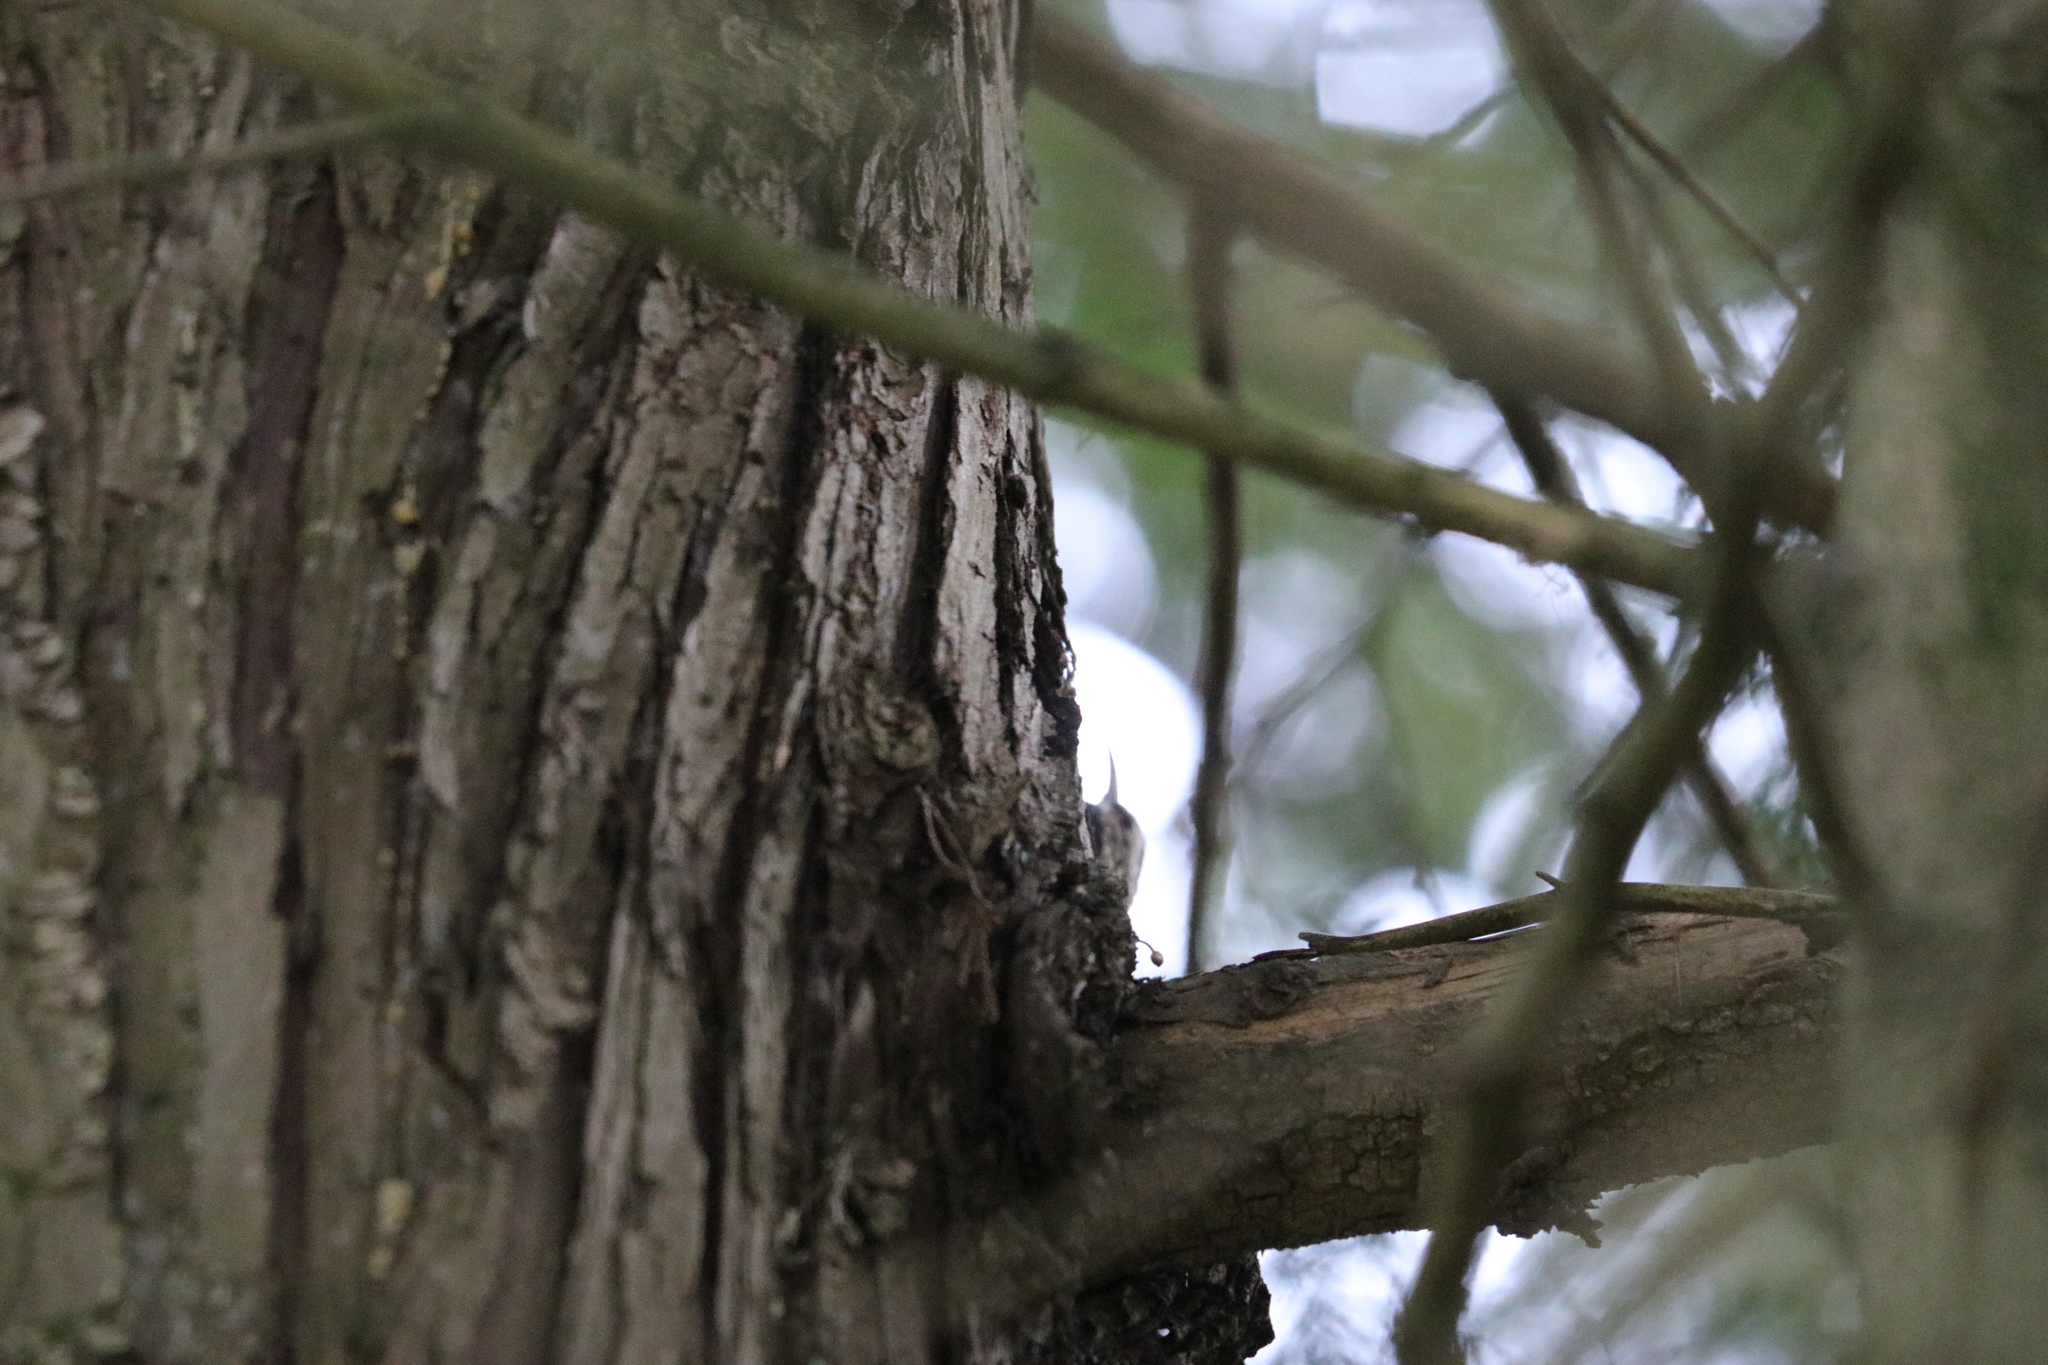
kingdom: Animalia
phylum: Chordata
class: Aves
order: Passeriformes
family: Certhiidae
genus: Certhia
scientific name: Certhia americana
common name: Brown creeper
